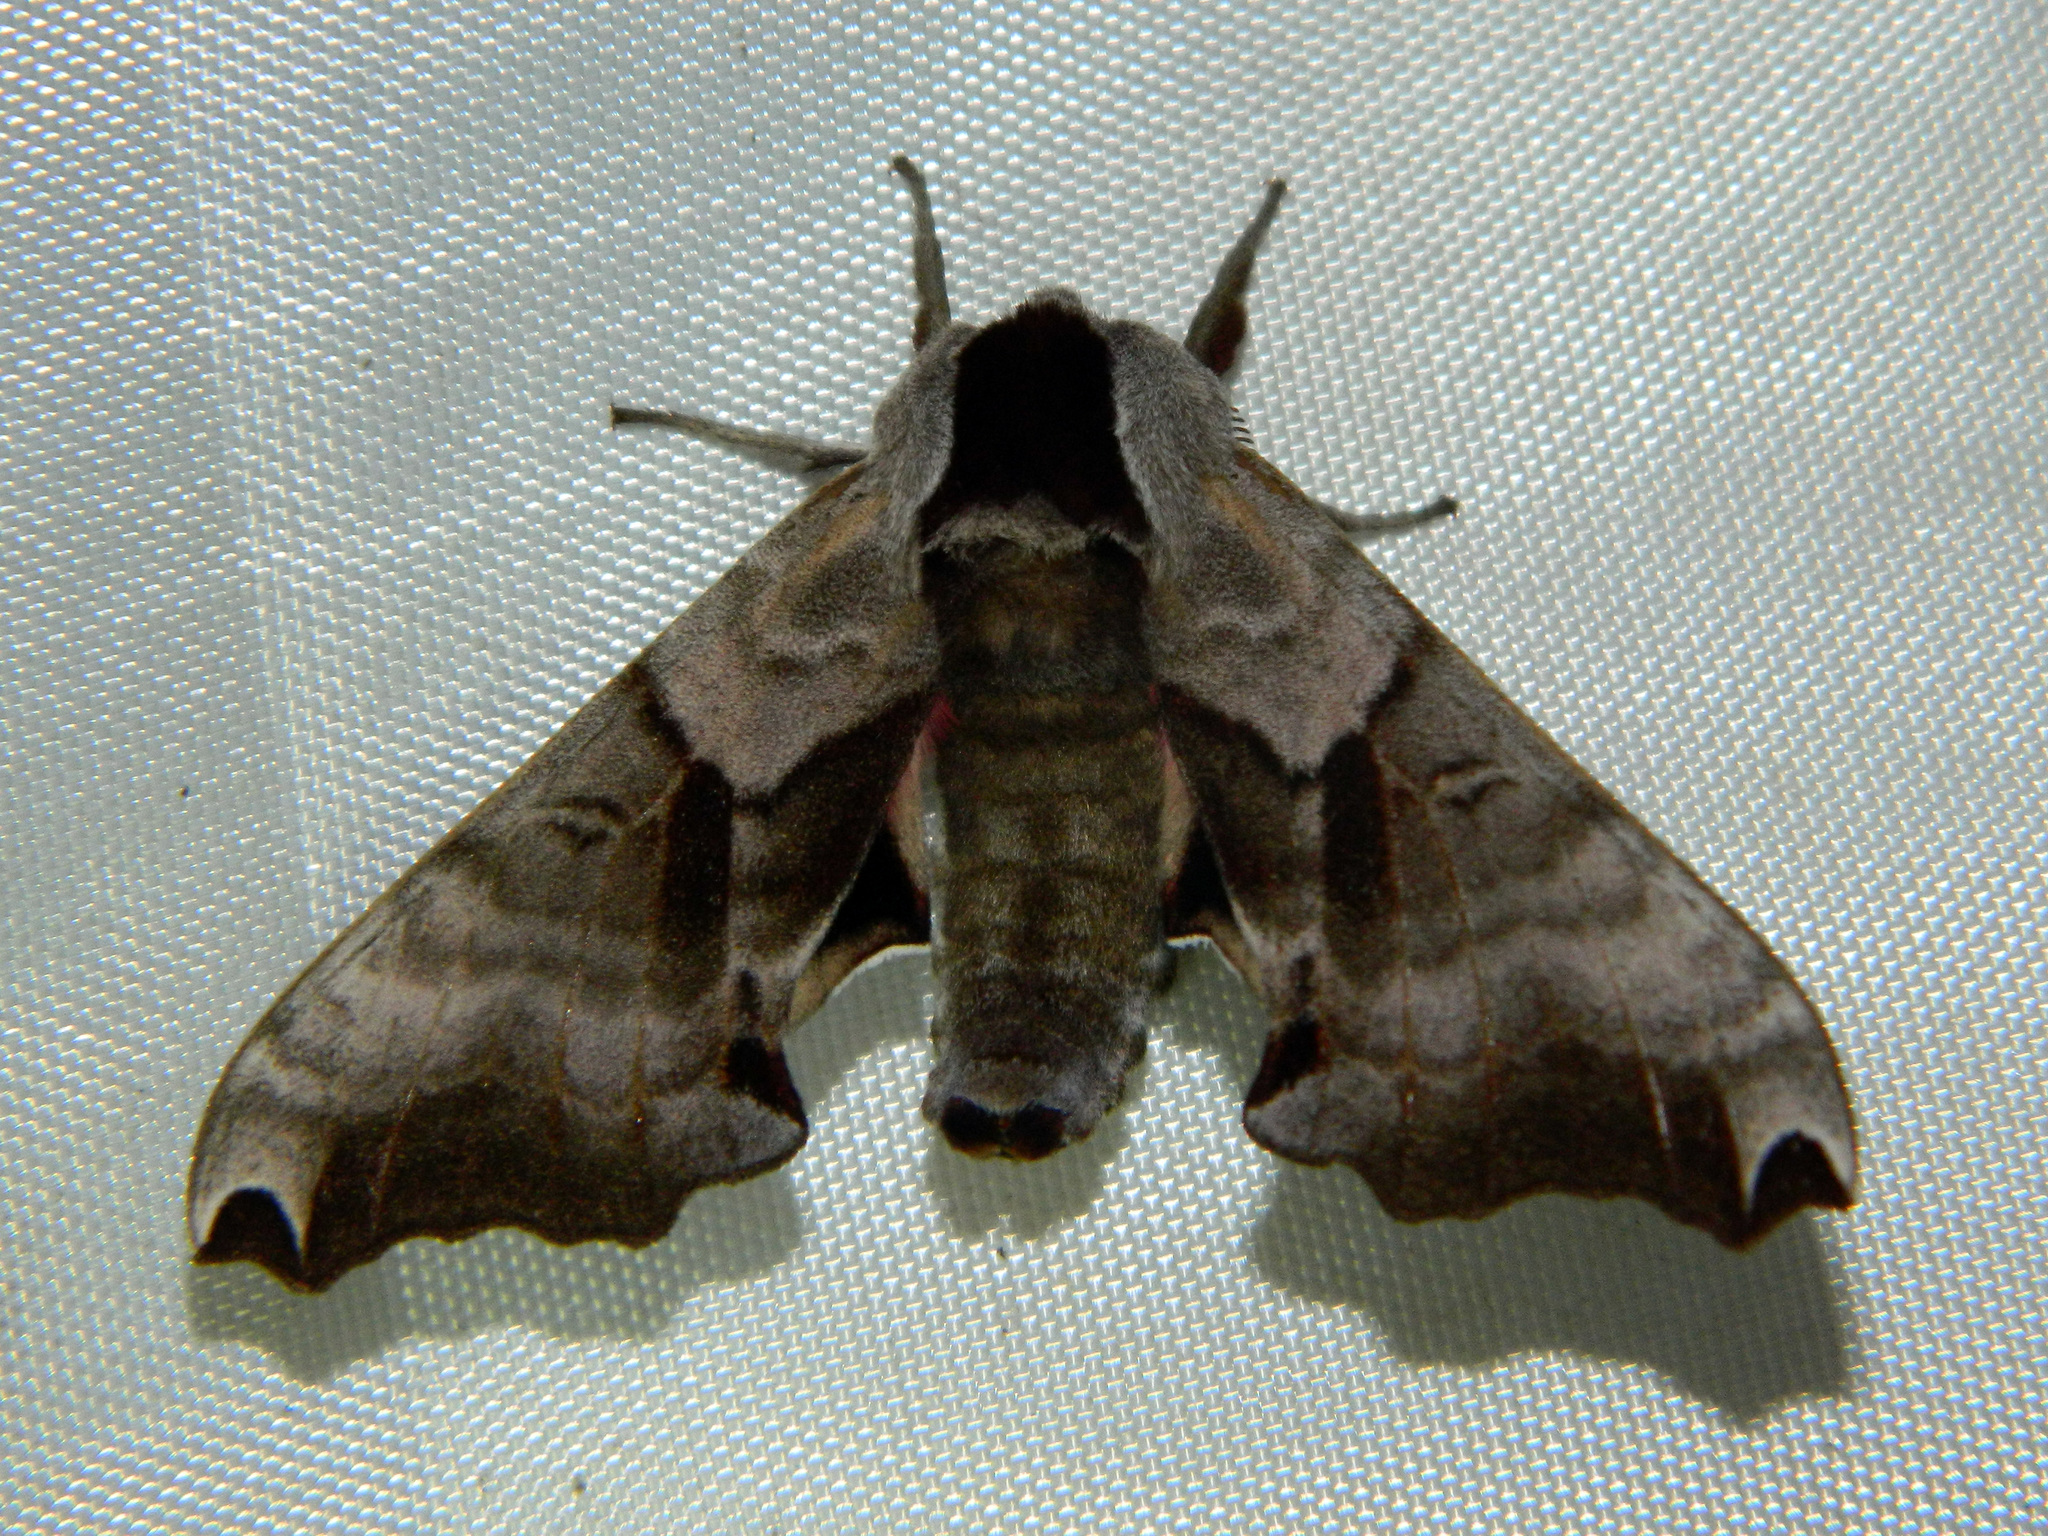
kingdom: Animalia
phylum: Arthropoda
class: Insecta
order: Lepidoptera
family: Sphingidae
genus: Smerinthus
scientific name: Smerinthus jamaicensis
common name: Twin spotted sphinx
